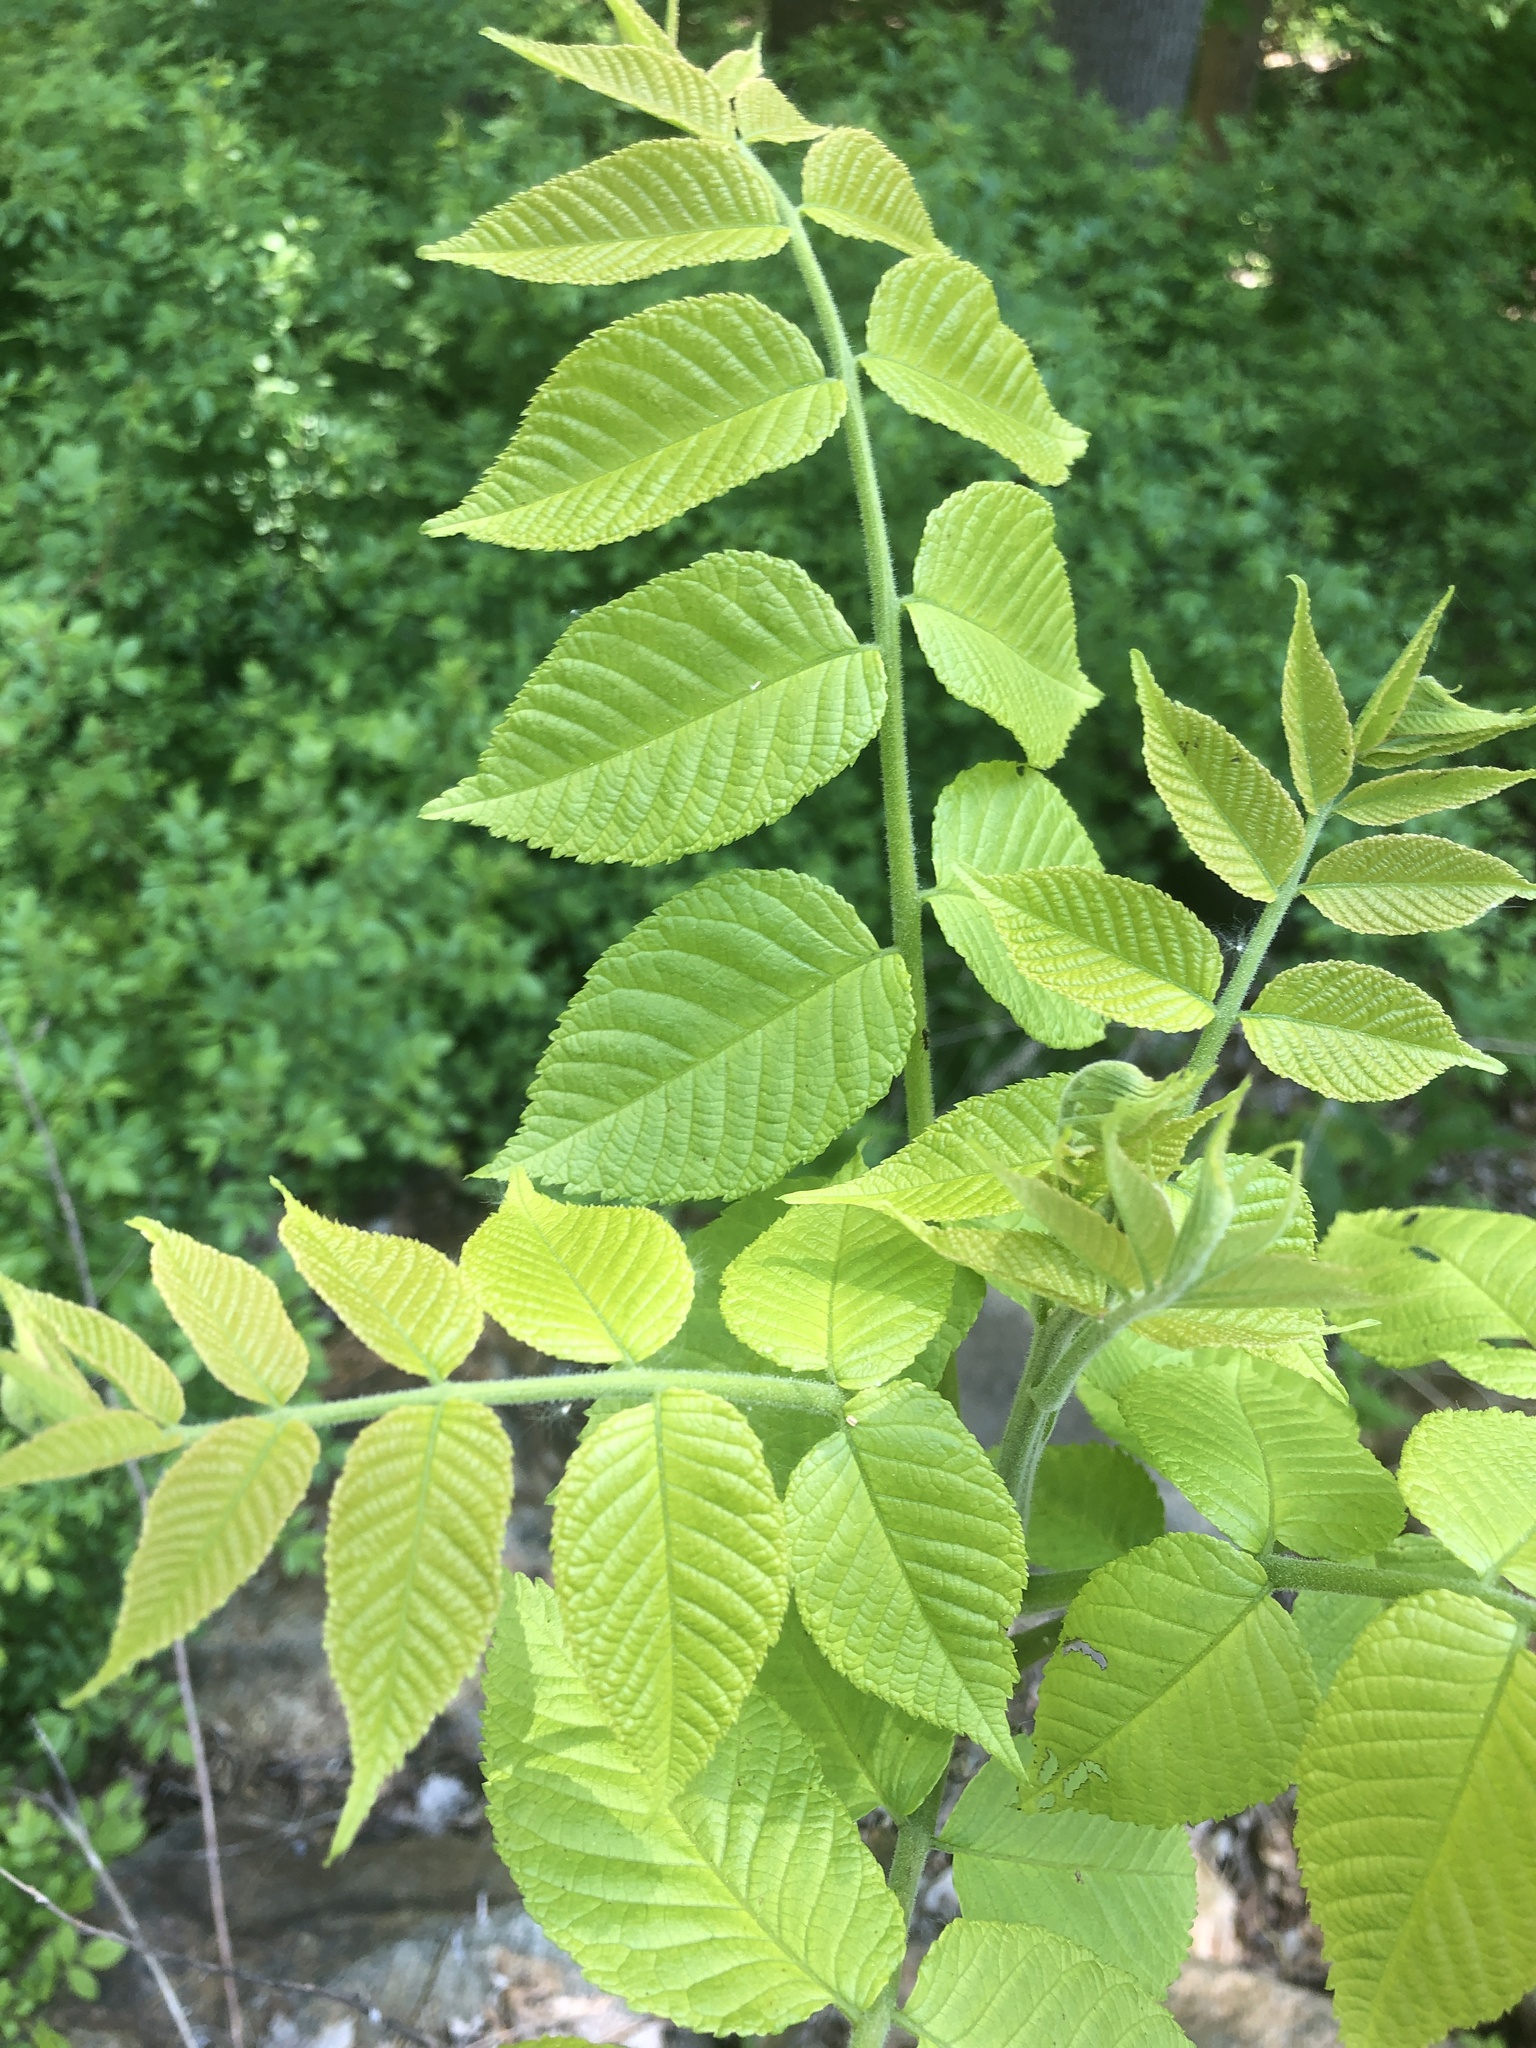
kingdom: Plantae
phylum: Tracheophyta
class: Magnoliopsida
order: Fagales
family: Juglandaceae
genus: Juglans
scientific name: Juglans nigra
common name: Black walnut
